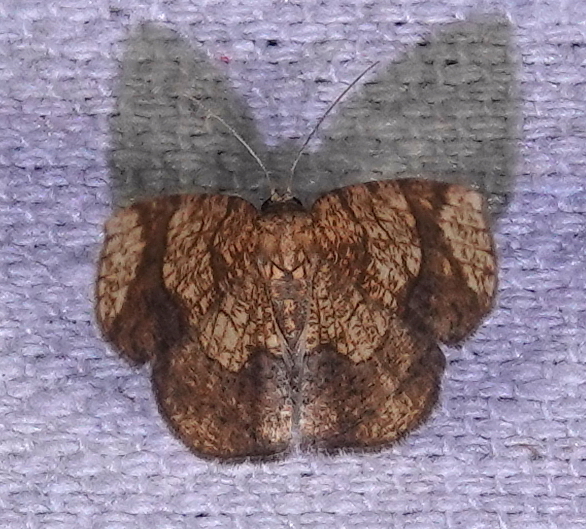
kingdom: Animalia
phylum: Arthropoda
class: Insecta
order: Lepidoptera
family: Geometridae
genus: Nematocampa
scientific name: Nematocampa reticulata
